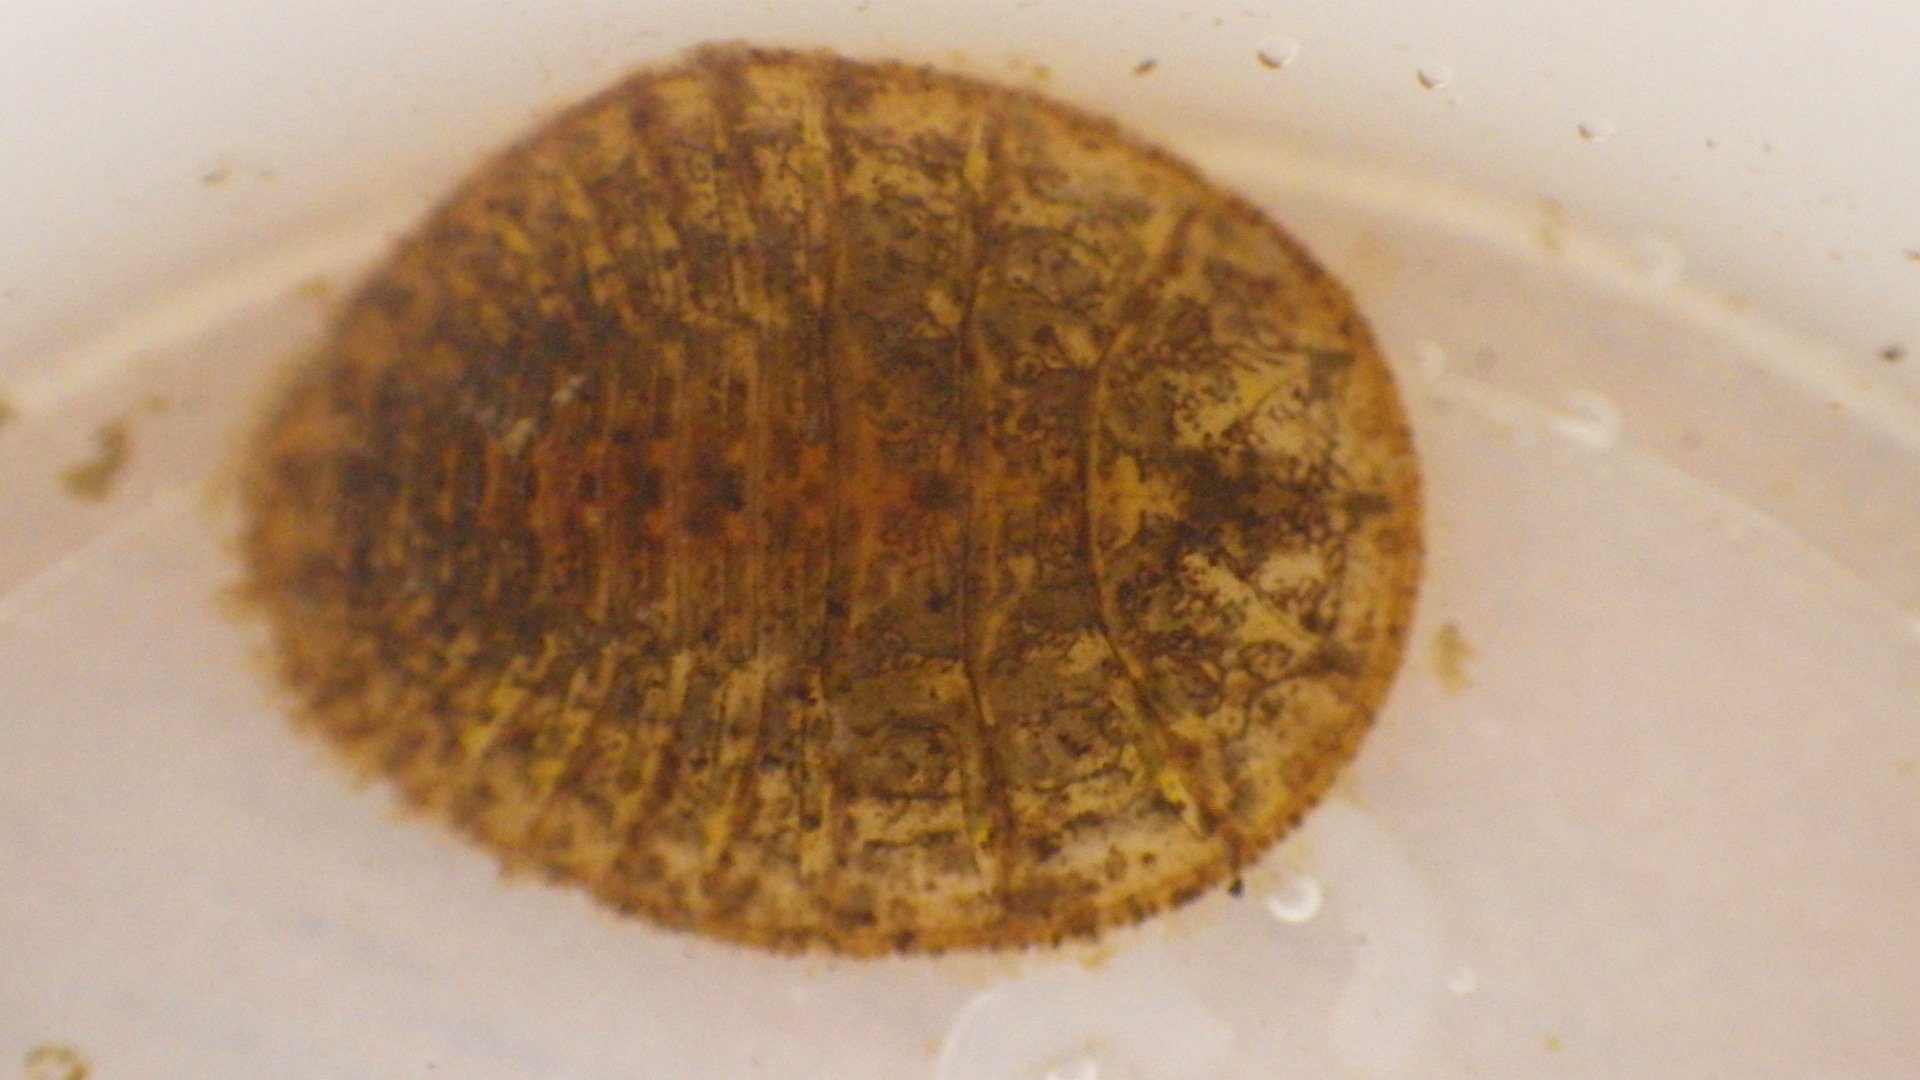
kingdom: Animalia
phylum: Arthropoda
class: Insecta
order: Coleoptera
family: Psephenidae
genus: Psephenus
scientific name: Psephenus herricki
